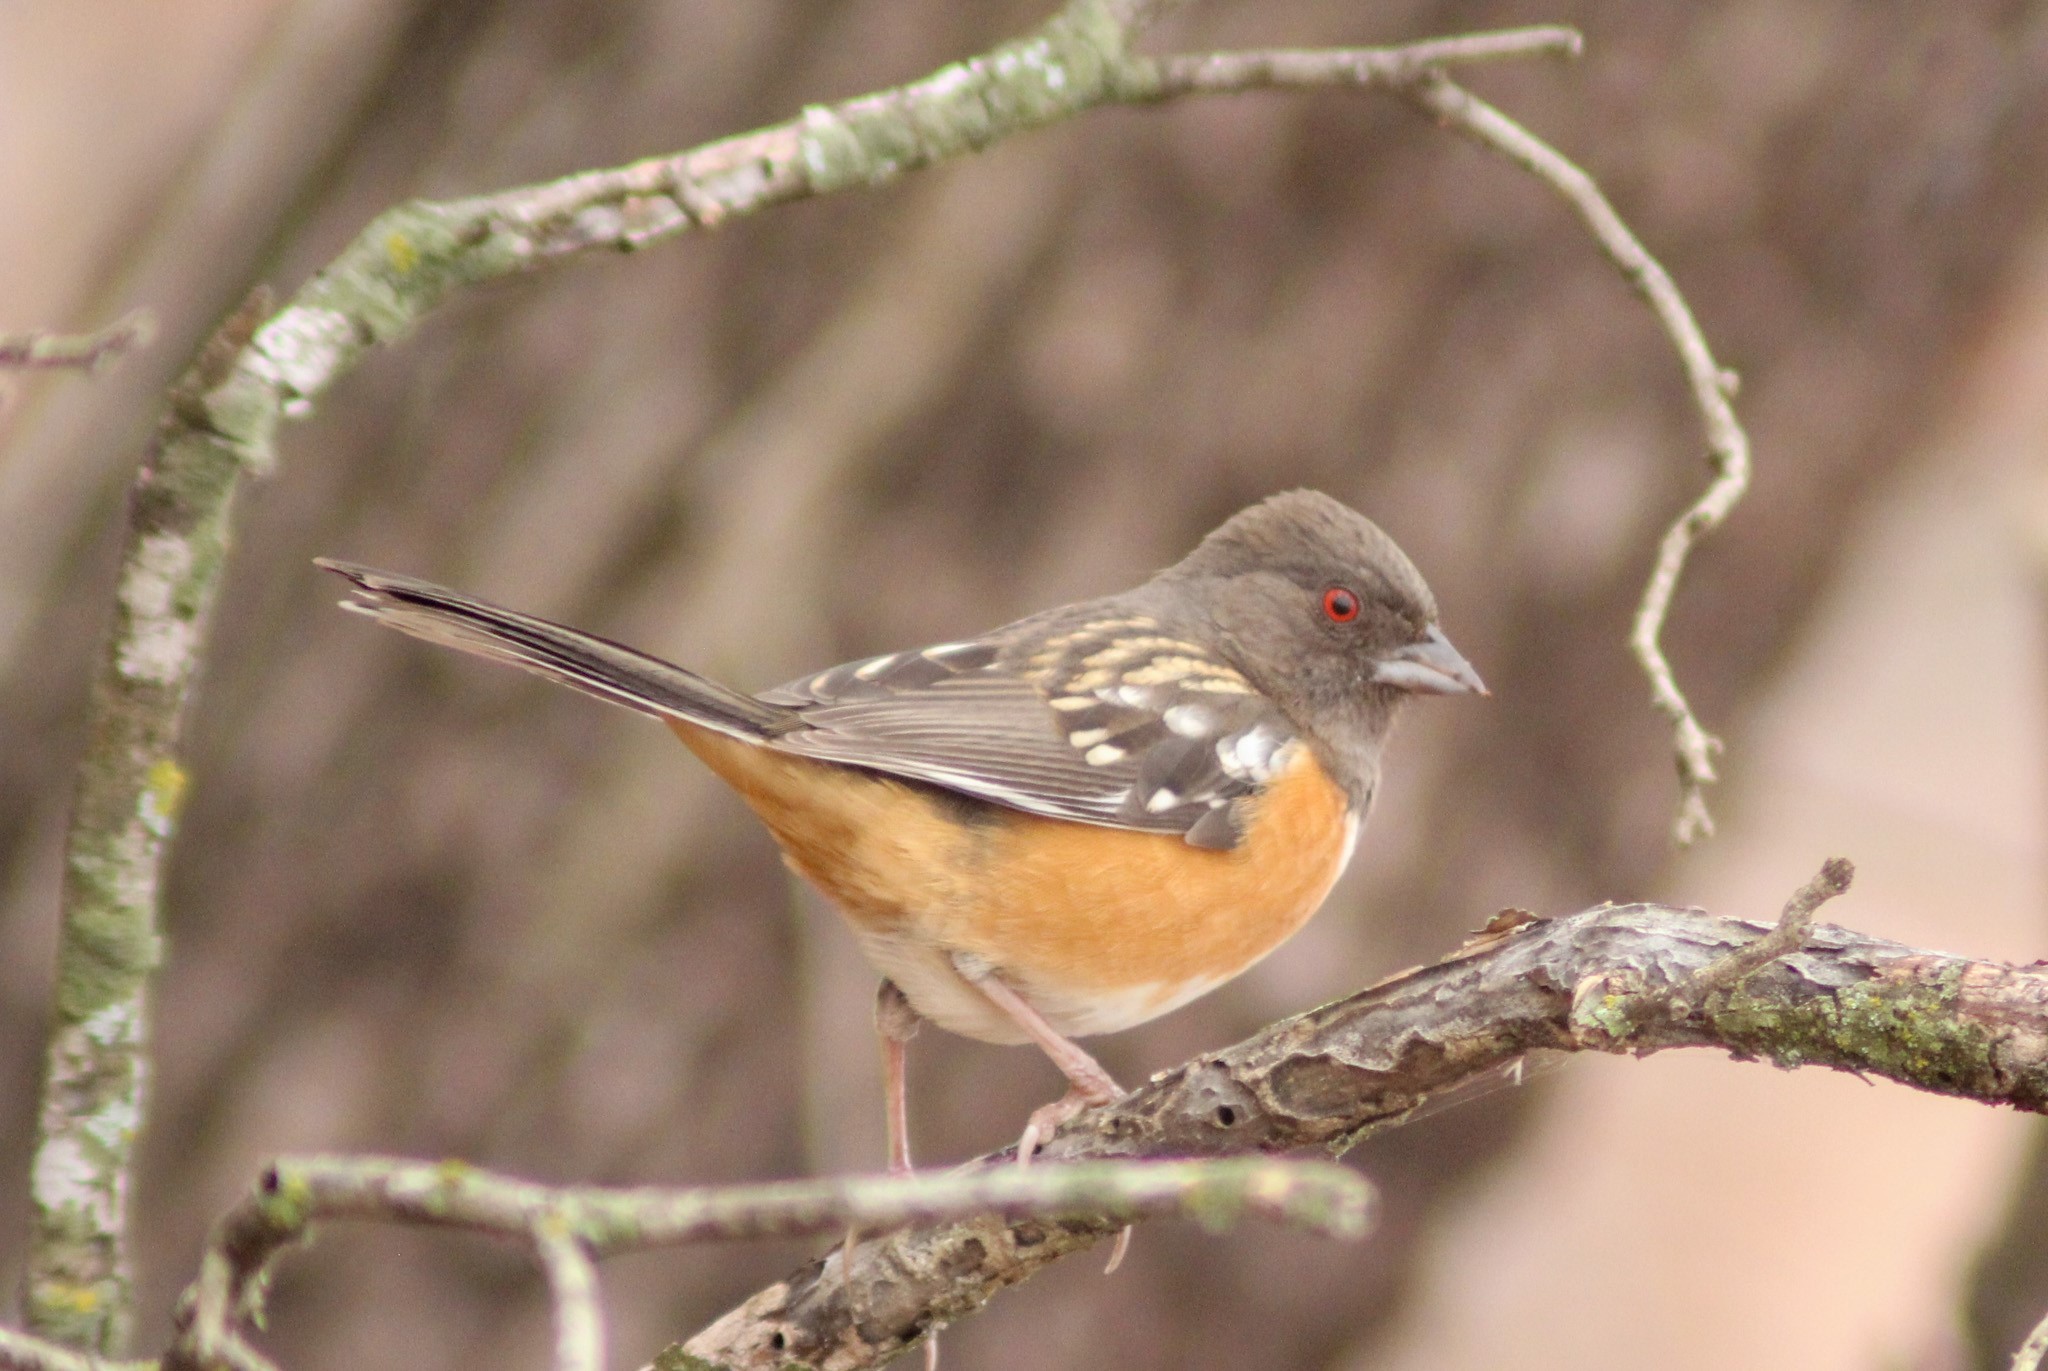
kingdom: Animalia
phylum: Chordata
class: Aves
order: Passeriformes
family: Passerellidae
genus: Pipilo
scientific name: Pipilo maculatus
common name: Spotted towhee
